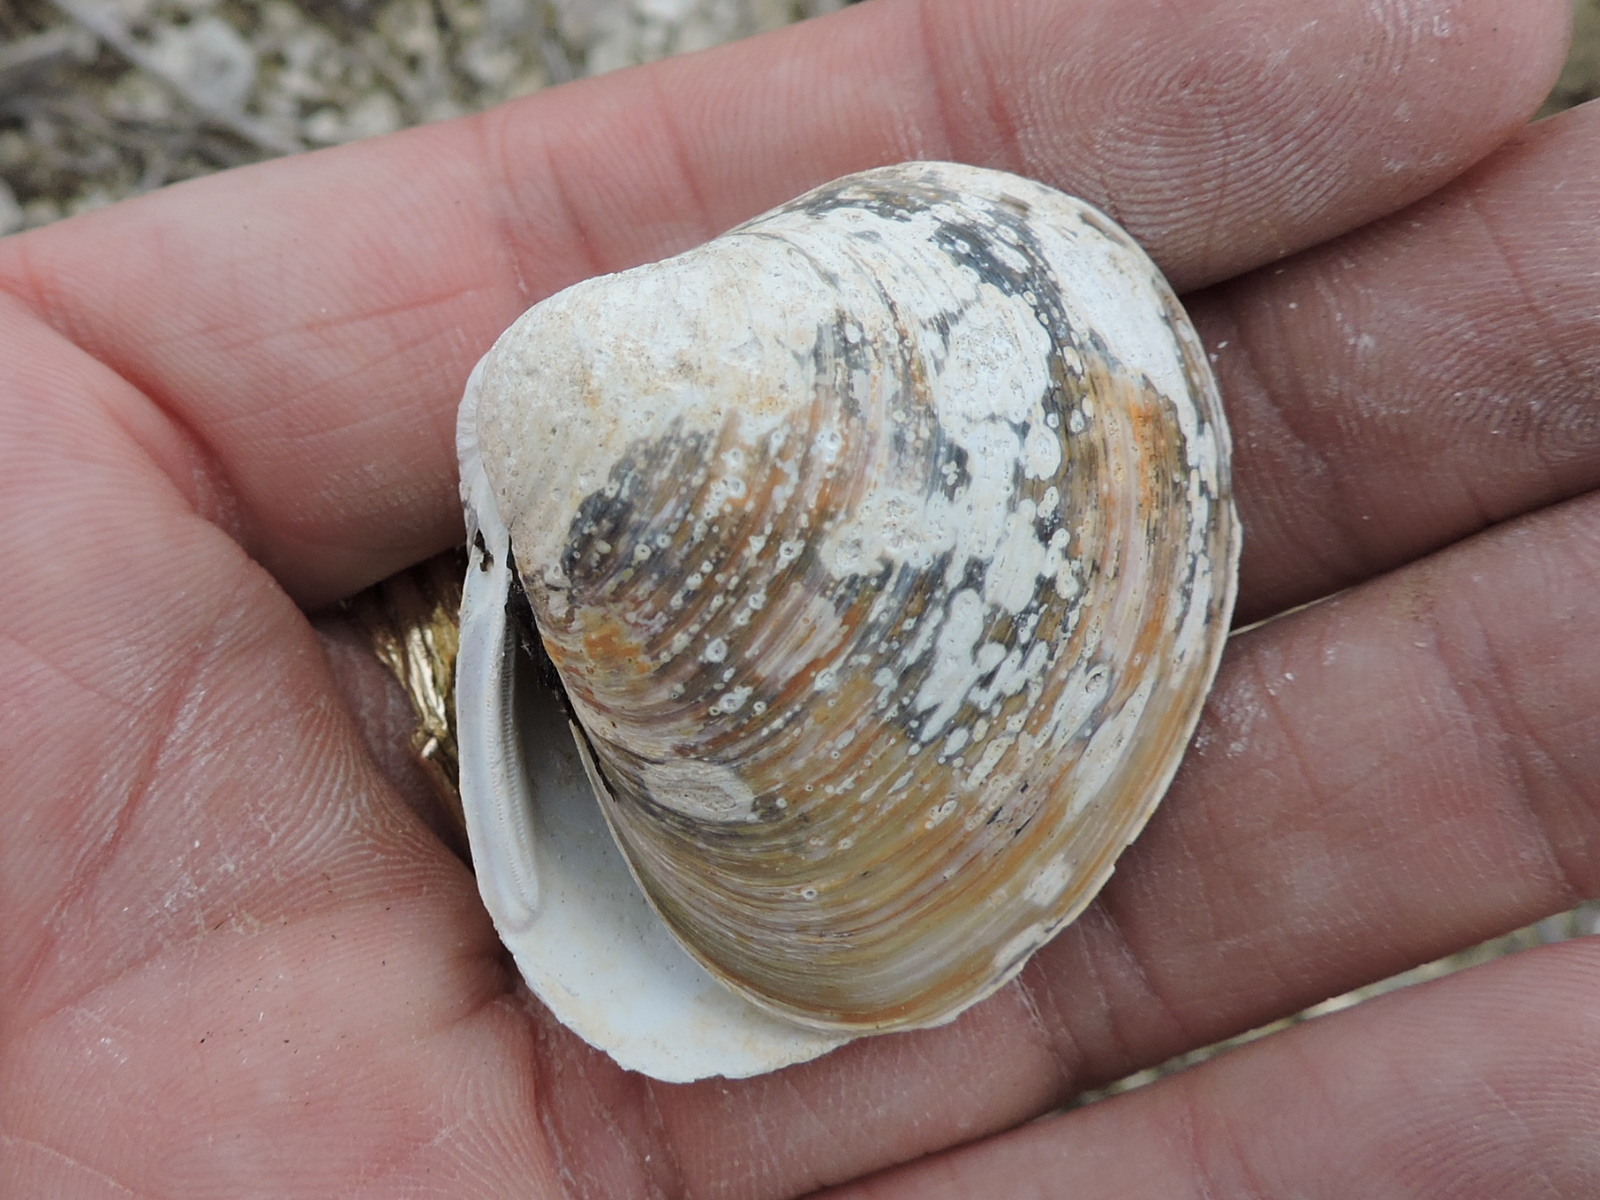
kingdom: Animalia
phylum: Mollusca
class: Bivalvia
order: Venerida
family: Cyrenidae
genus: Corbicula
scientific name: Corbicula fluminea
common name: Asian clam
